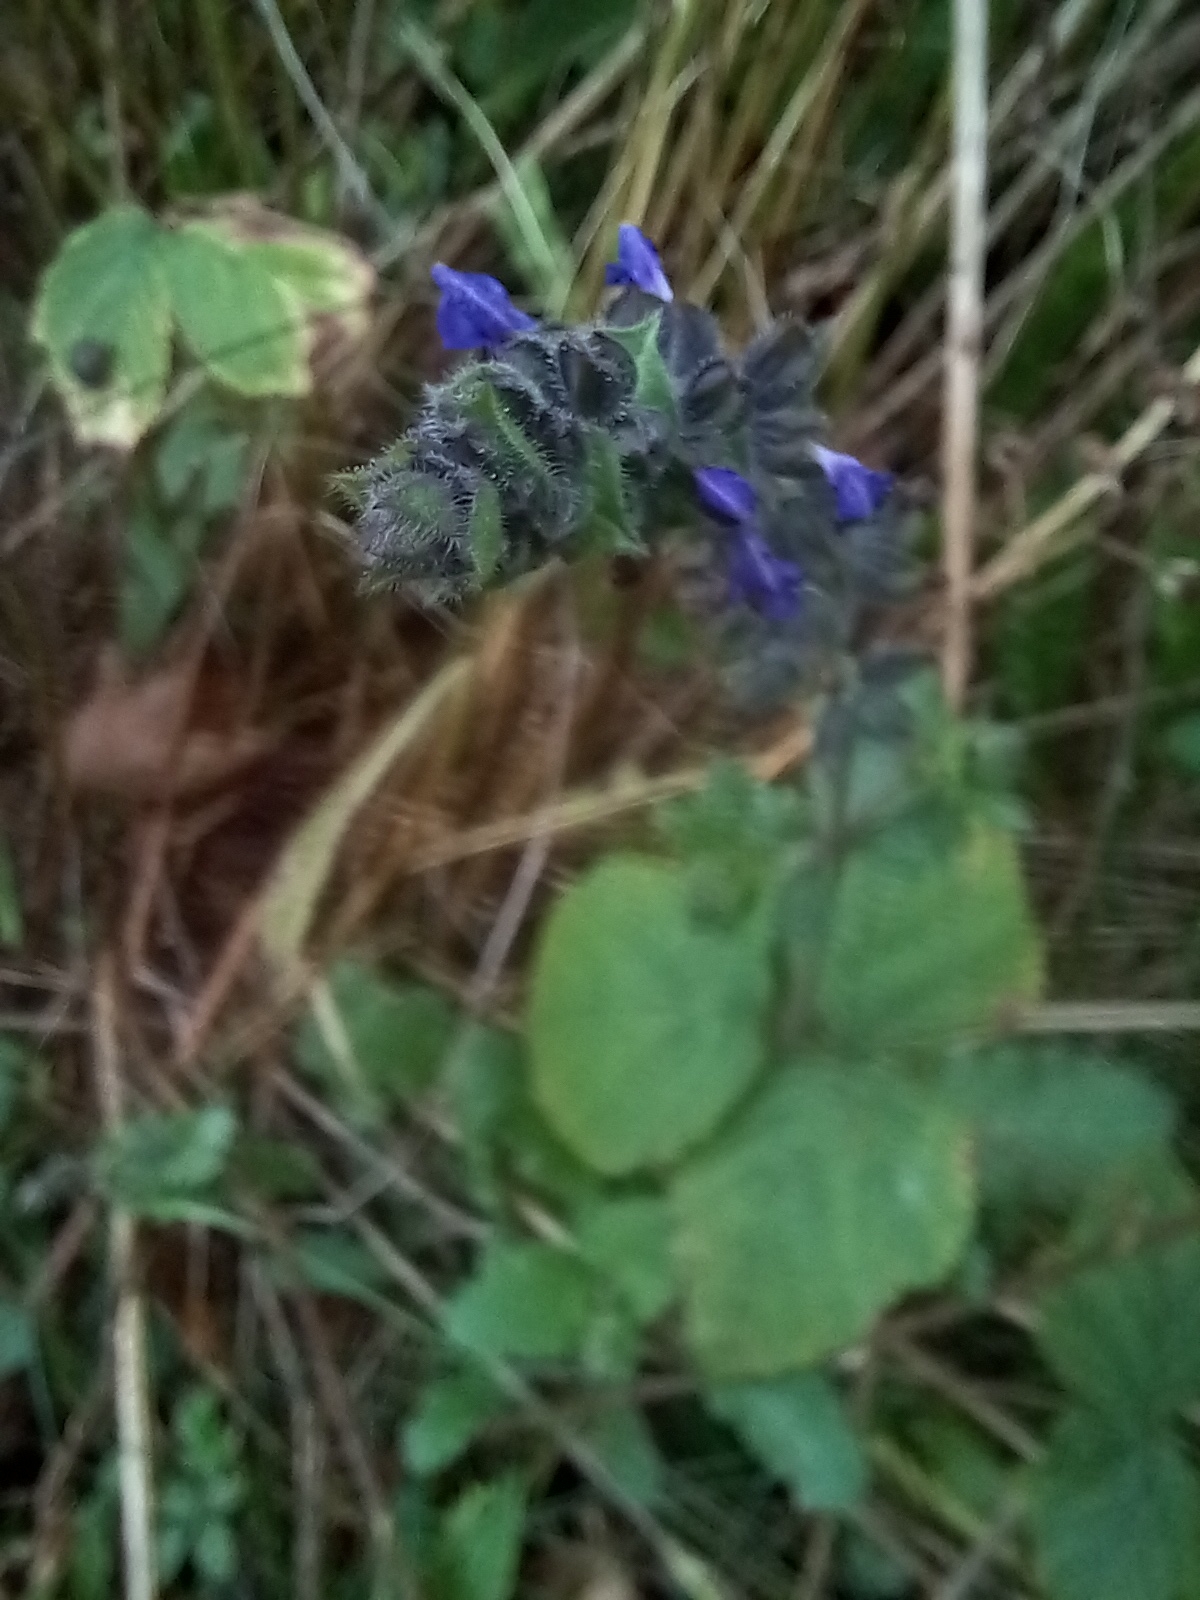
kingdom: Plantae
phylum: Tracheophyta
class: Magnoliopsida
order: Lamiales
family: Lamiaceae
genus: Salvia
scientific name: Salvia verbenaca
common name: Wild clary
